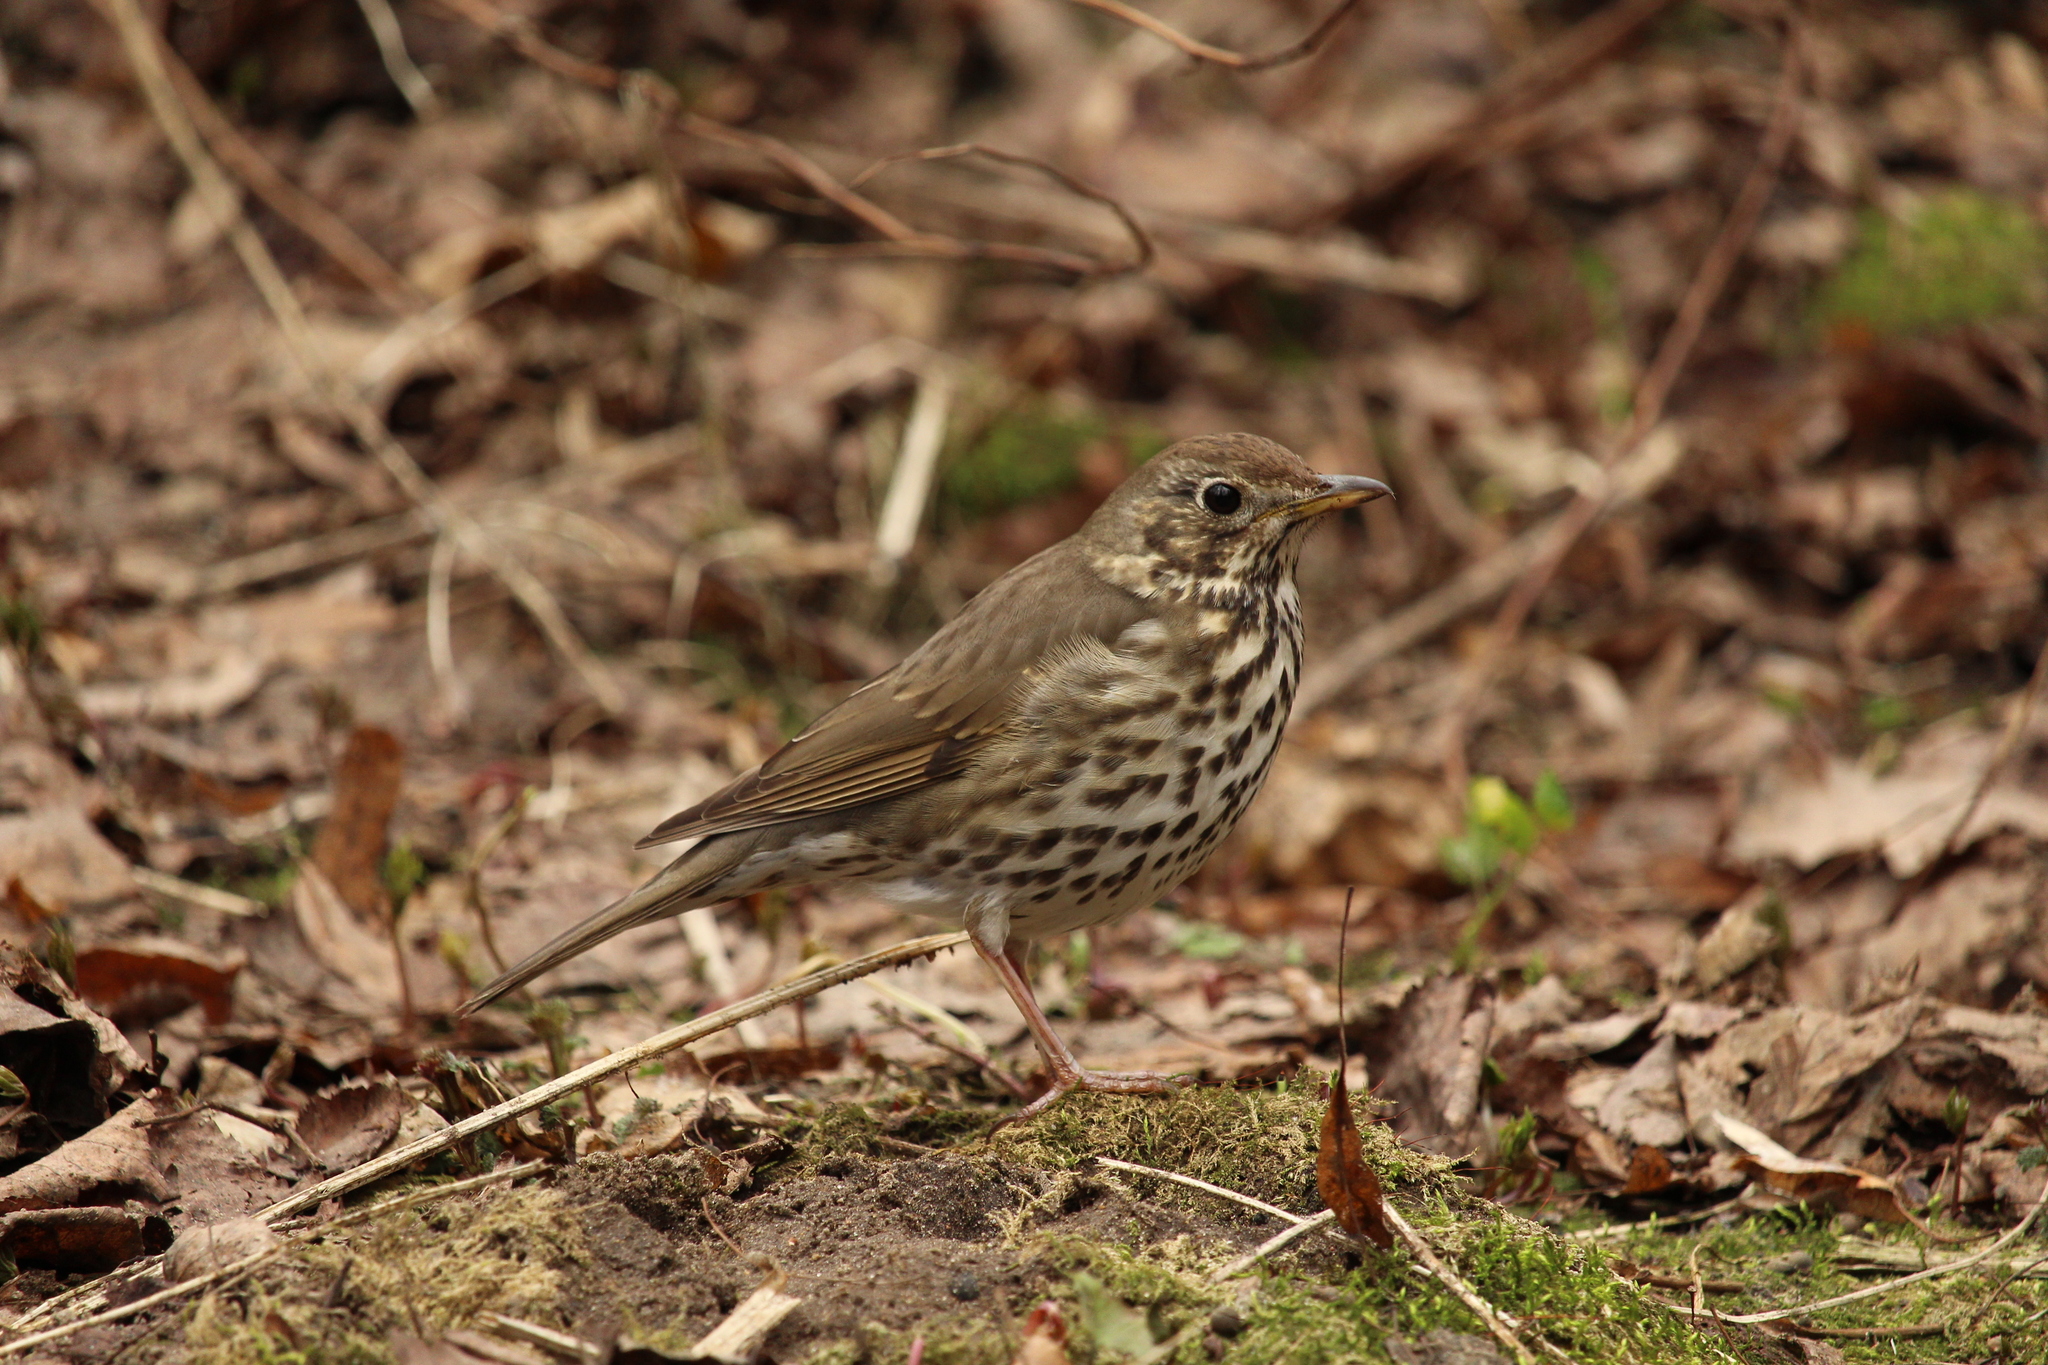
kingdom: Animalia
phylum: Chordata
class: Aves
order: Passeriformes
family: Turdidae
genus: Turdus
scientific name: Turdus philomelos
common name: Song thrush
